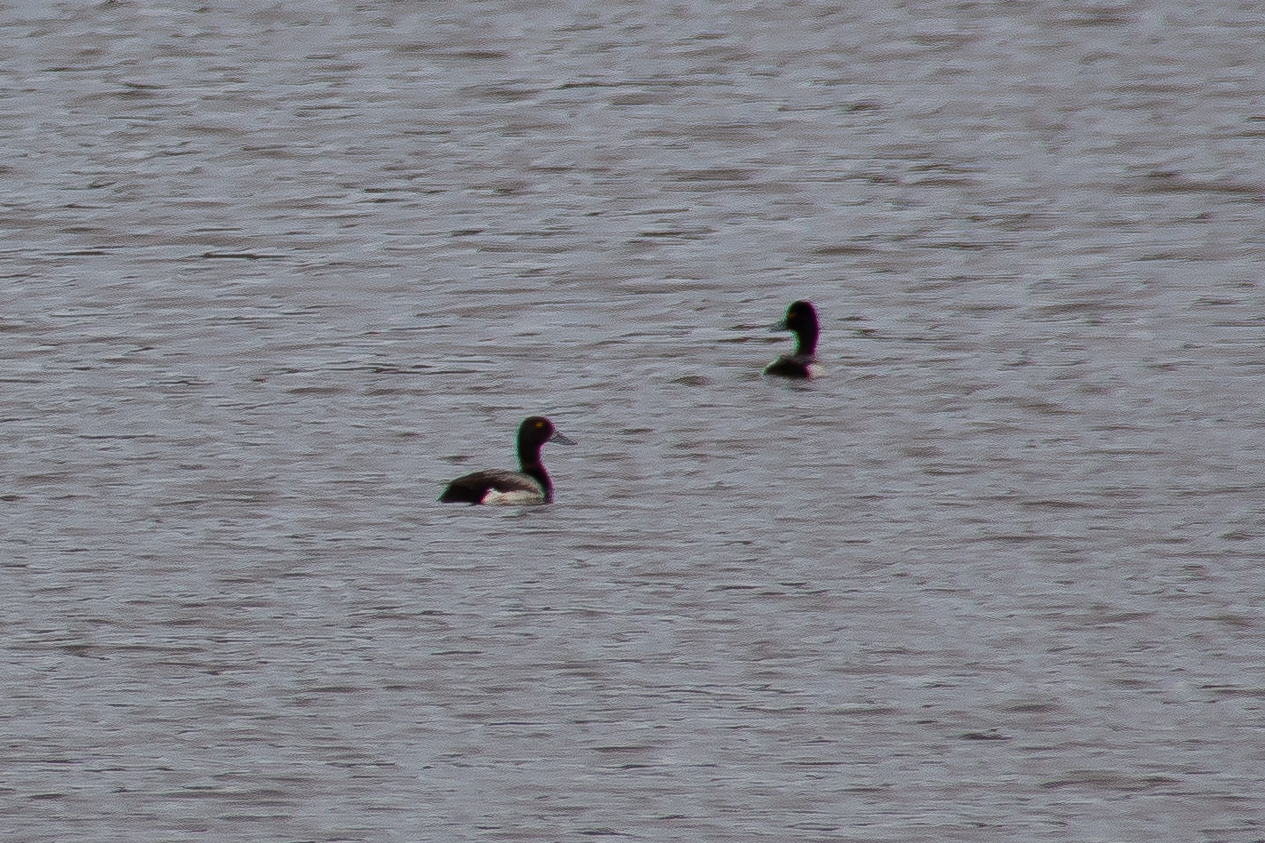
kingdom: Animalia
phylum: Chordata
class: Aves
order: Anseriformes
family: Anatidae
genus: Aythya
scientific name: Aythya affinis
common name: Lesser scaup
